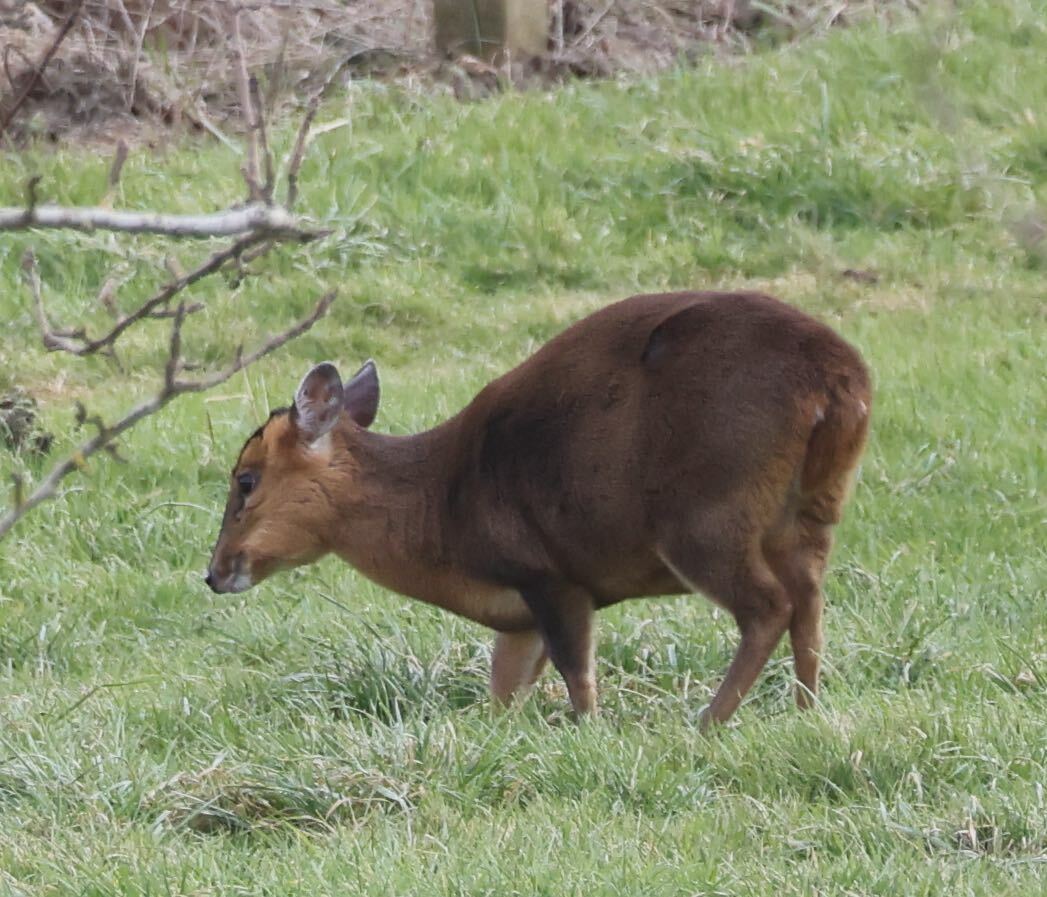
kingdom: Animalia
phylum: Chordata
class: Mammalia
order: Artiodactyla
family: Cervidae
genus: Muntiacus
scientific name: Muntiacus reevesi
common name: Reeves' muntjac
